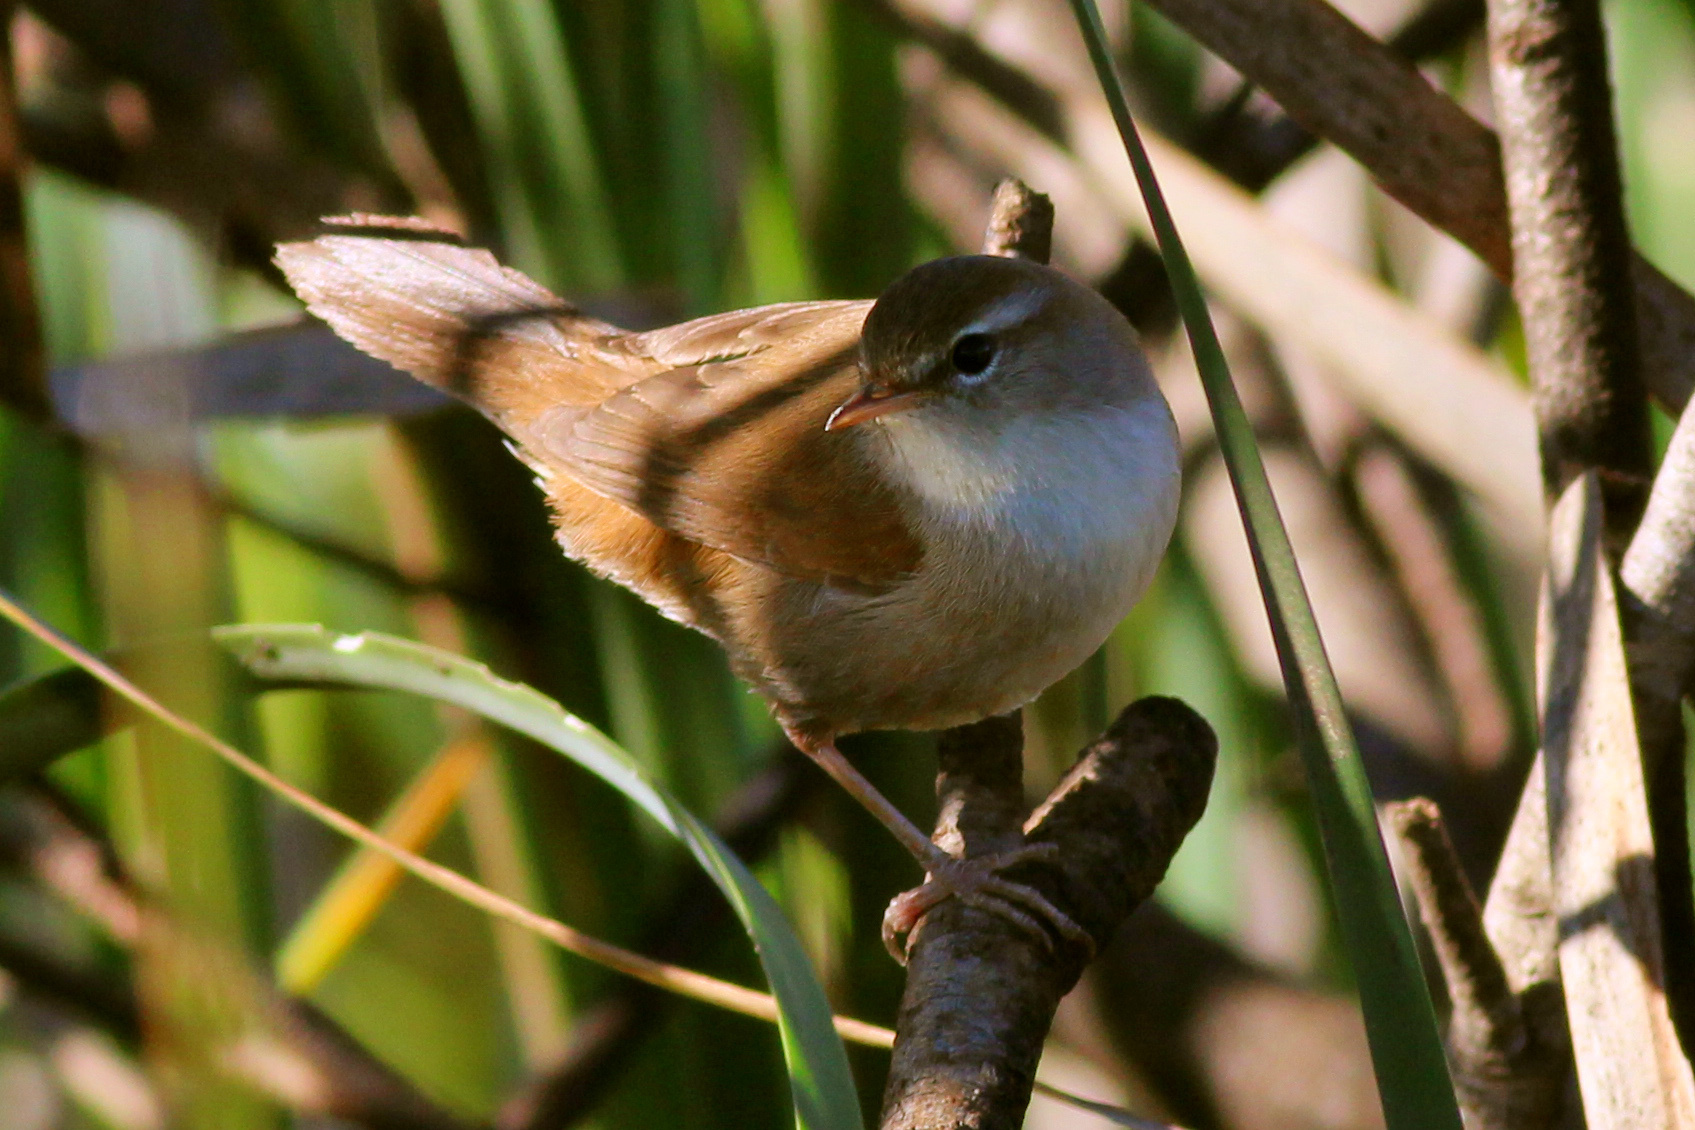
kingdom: Animalia
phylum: Chordata
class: Aves
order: Passeriformes
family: Cettiidae
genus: Cettia
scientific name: Cettia cetti
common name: Cetti's warbler
